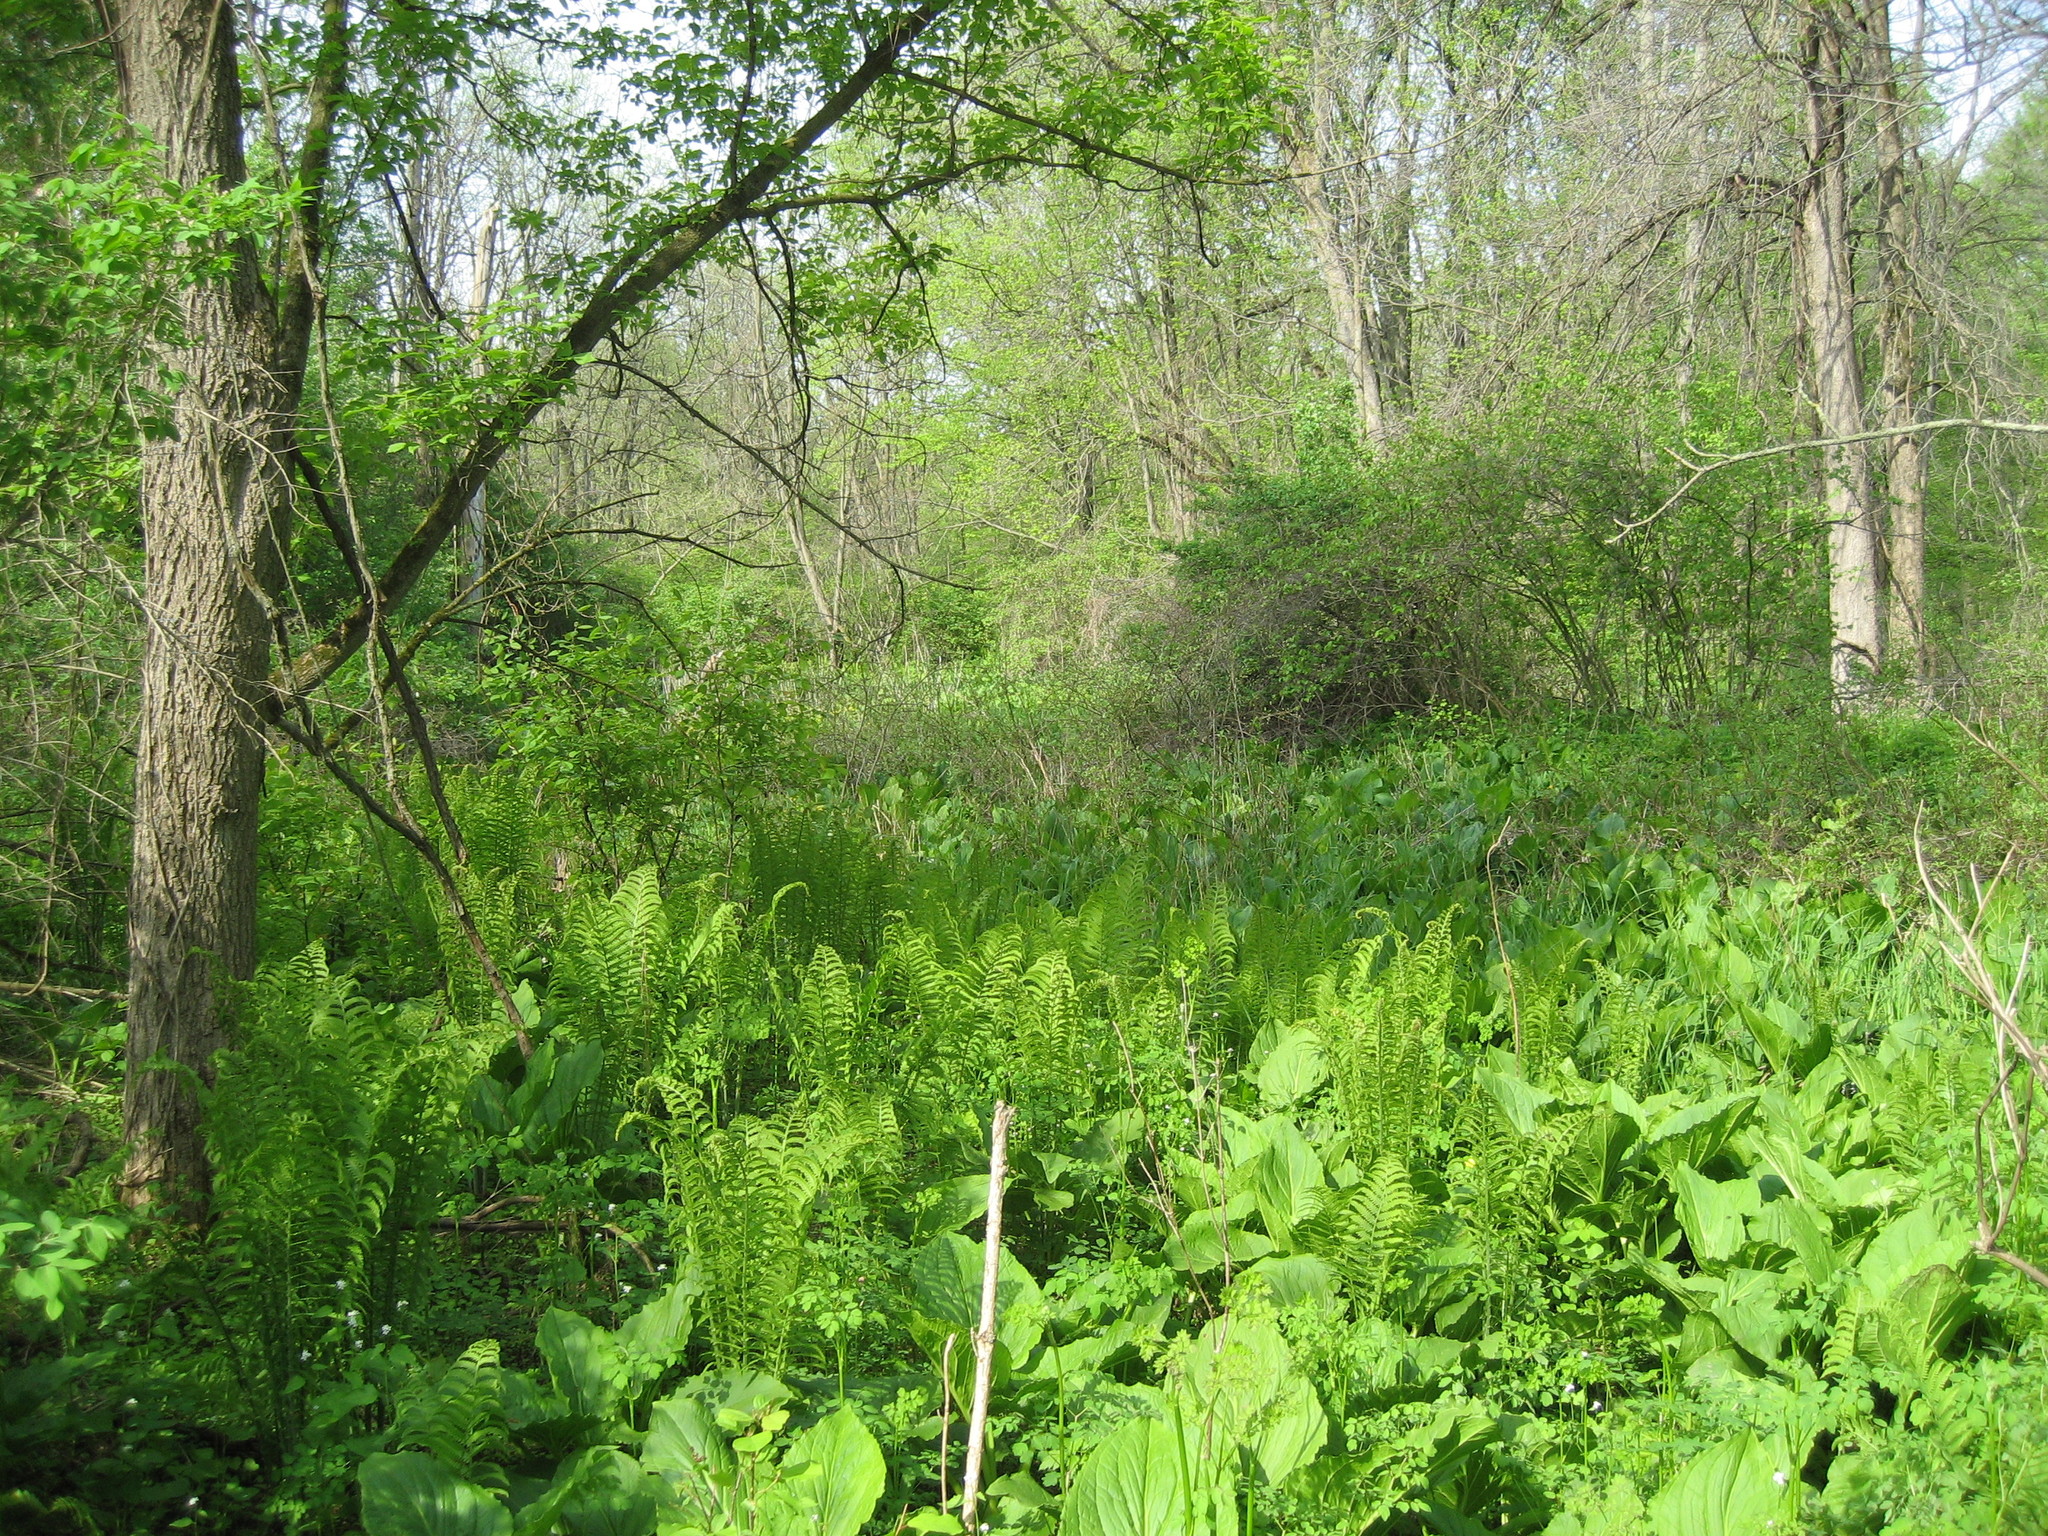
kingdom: Plantae
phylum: Tracheophyta
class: Liliopsida
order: Alismatales
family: Araceae
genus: Symplocarpus
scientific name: Symplocarpus foetidus
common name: Eastern skunk cabbage
